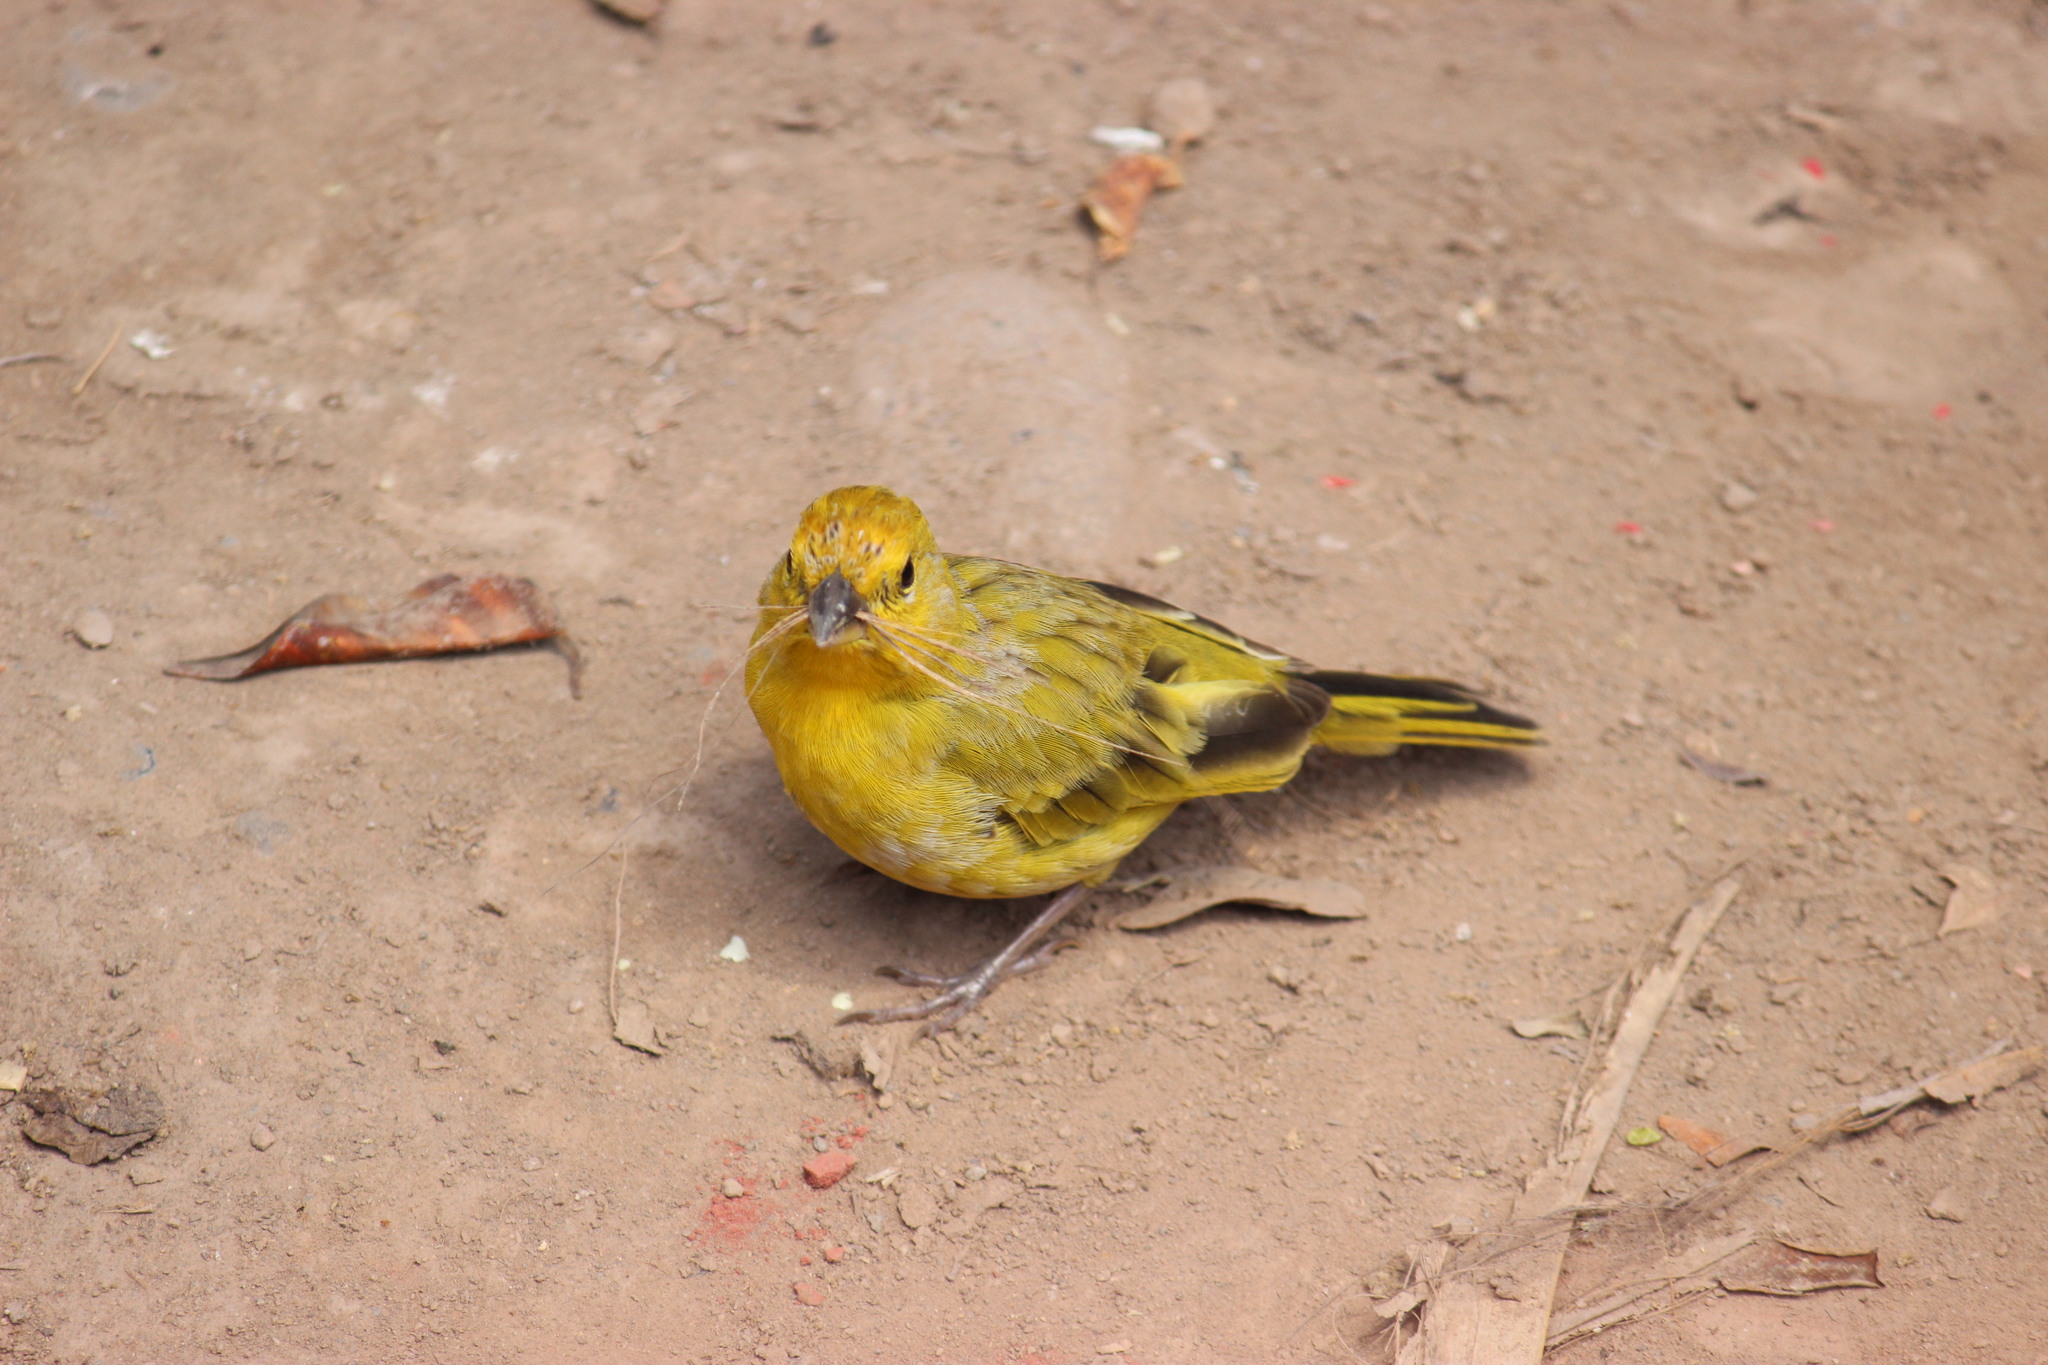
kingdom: Animalia
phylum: Chordata
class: Aves
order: Passeriformes
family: Thraupidae
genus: Sicalis
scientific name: Sicalis flaveola
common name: Saffron finch
